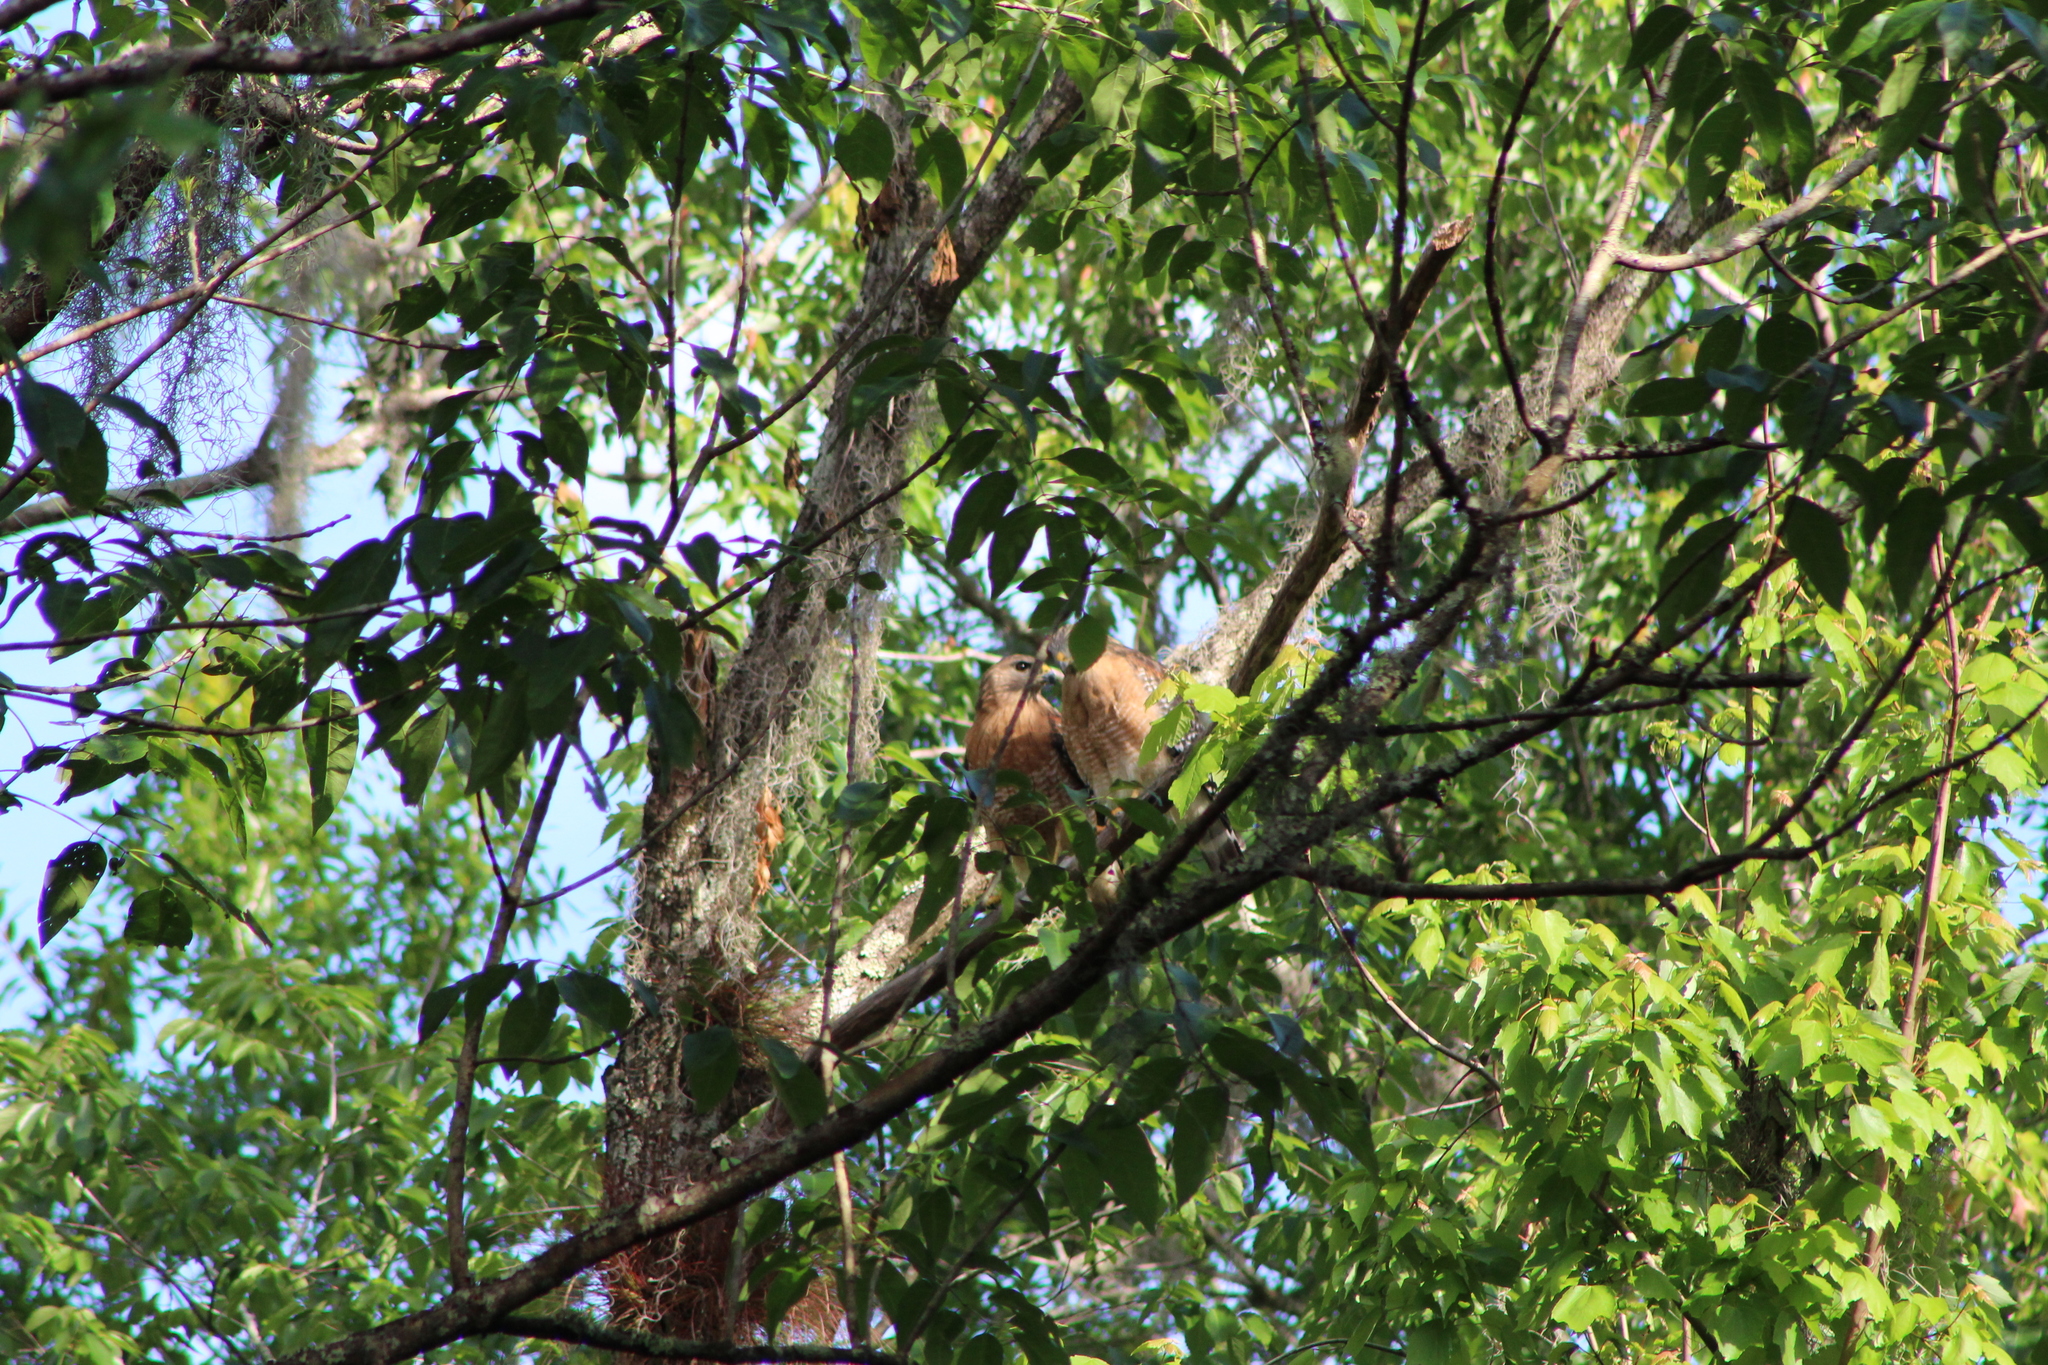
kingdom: Animalia
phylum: Chordata
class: Aves
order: Accipitriformes
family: Accipitridae
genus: Buteo
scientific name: Buteo lineatus
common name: Red-shouldered hawk
